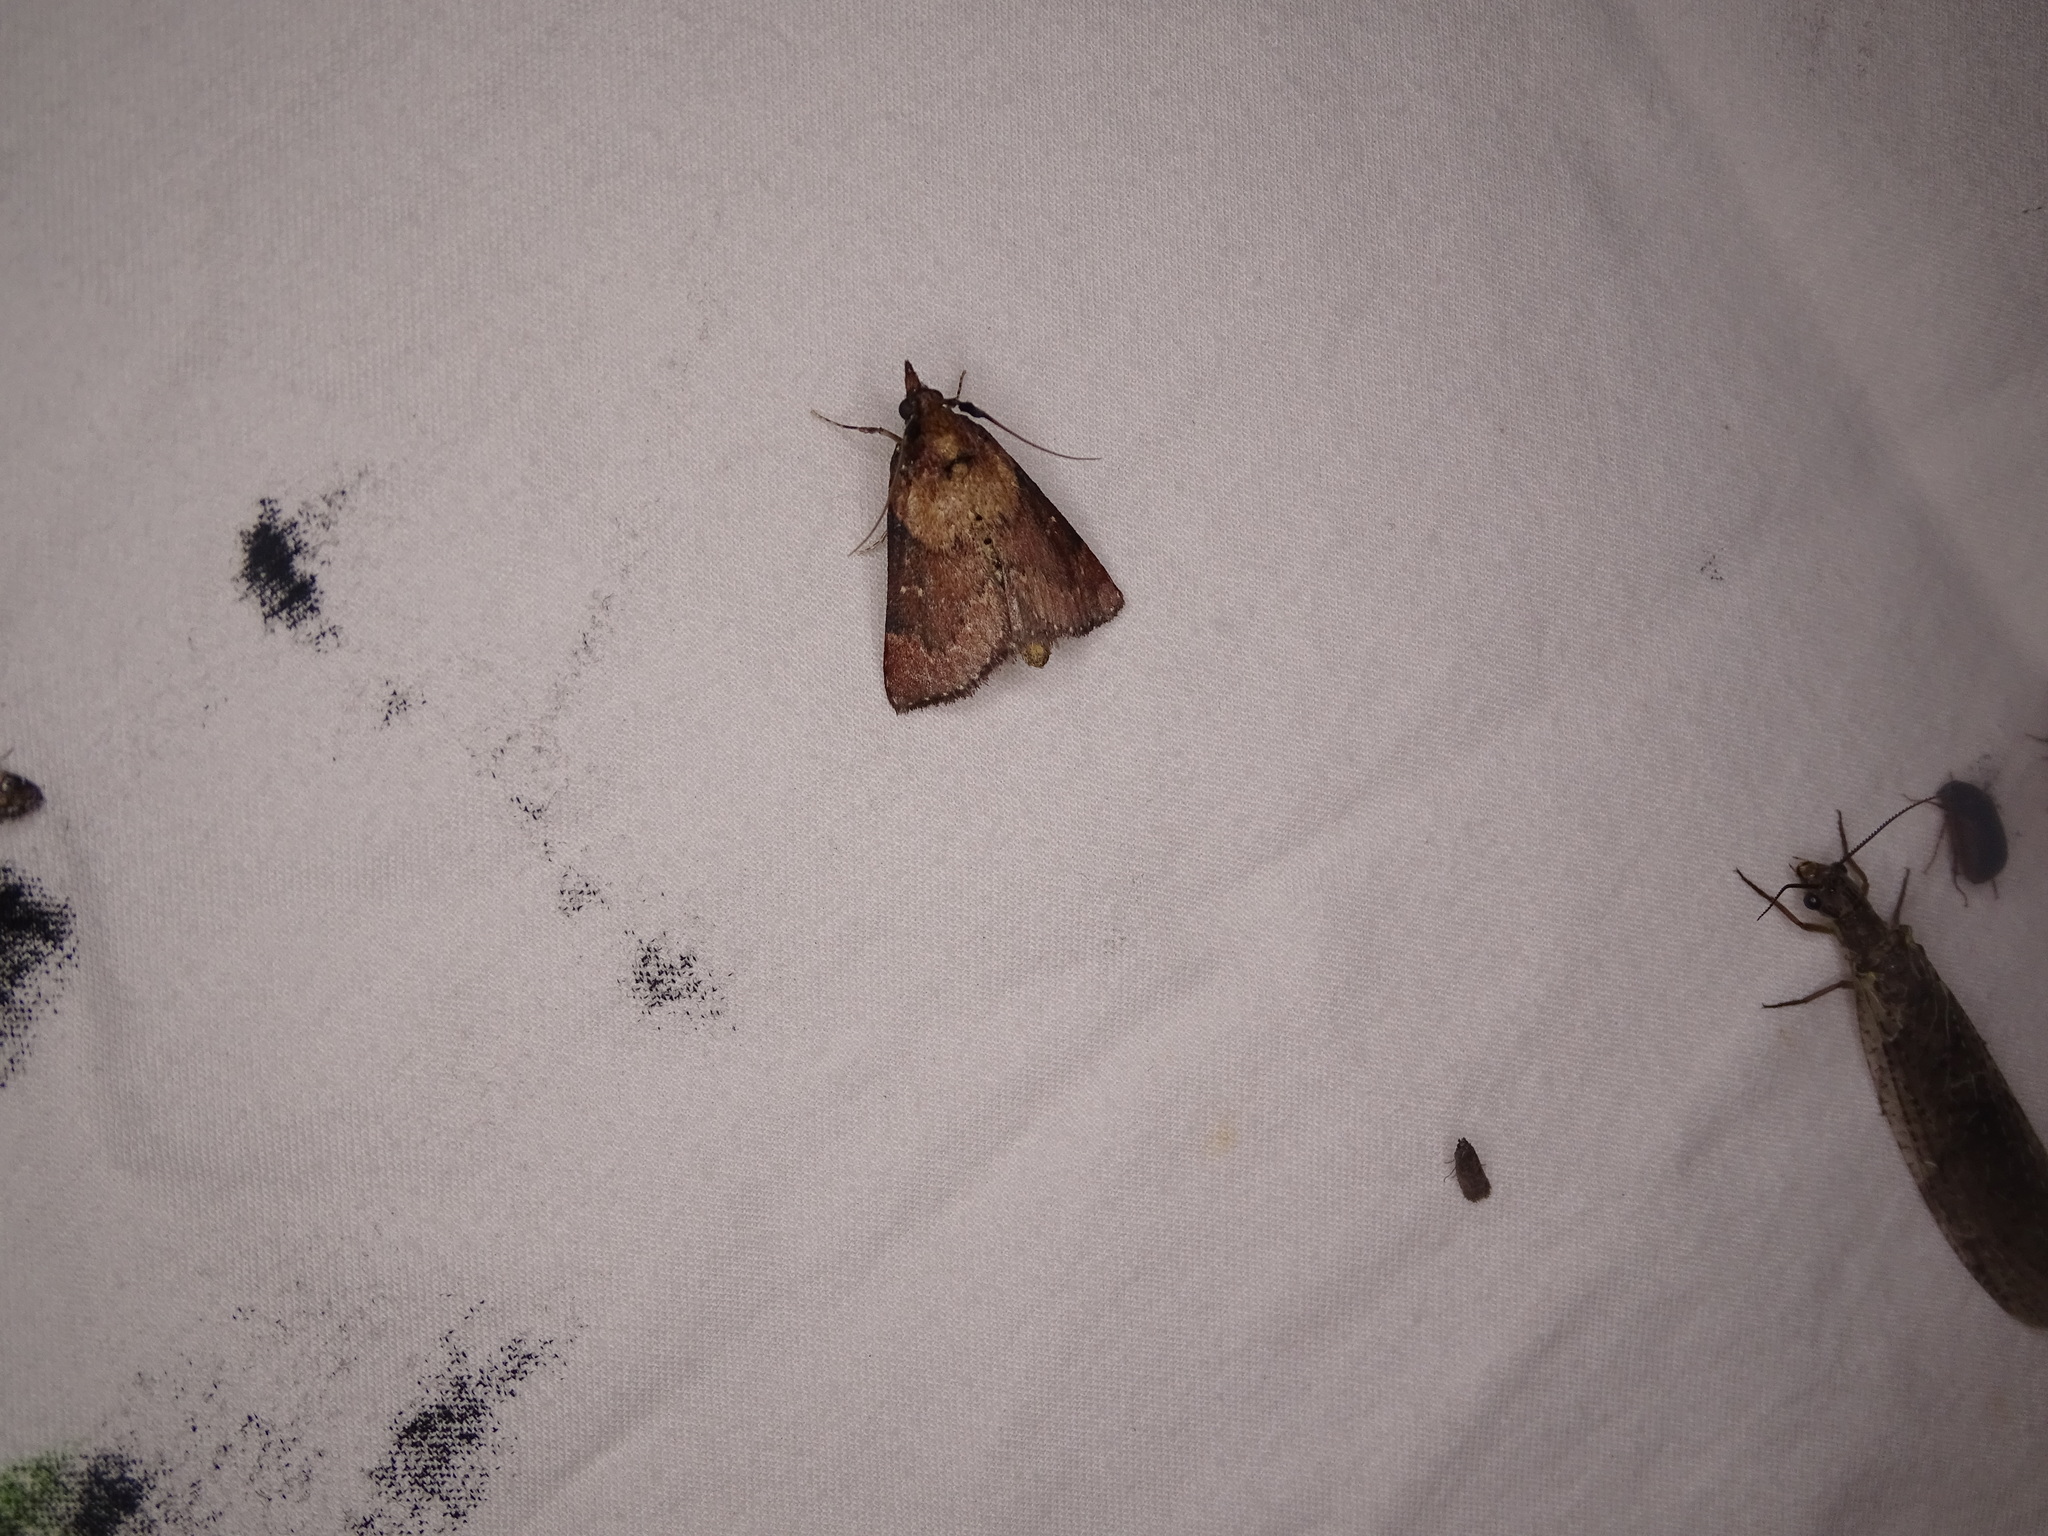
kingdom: Animalia
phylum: Arthropoda
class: Insecta
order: Lepidoptera
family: Pyralidae
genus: Omphalocera
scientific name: Omphalocera munroei
